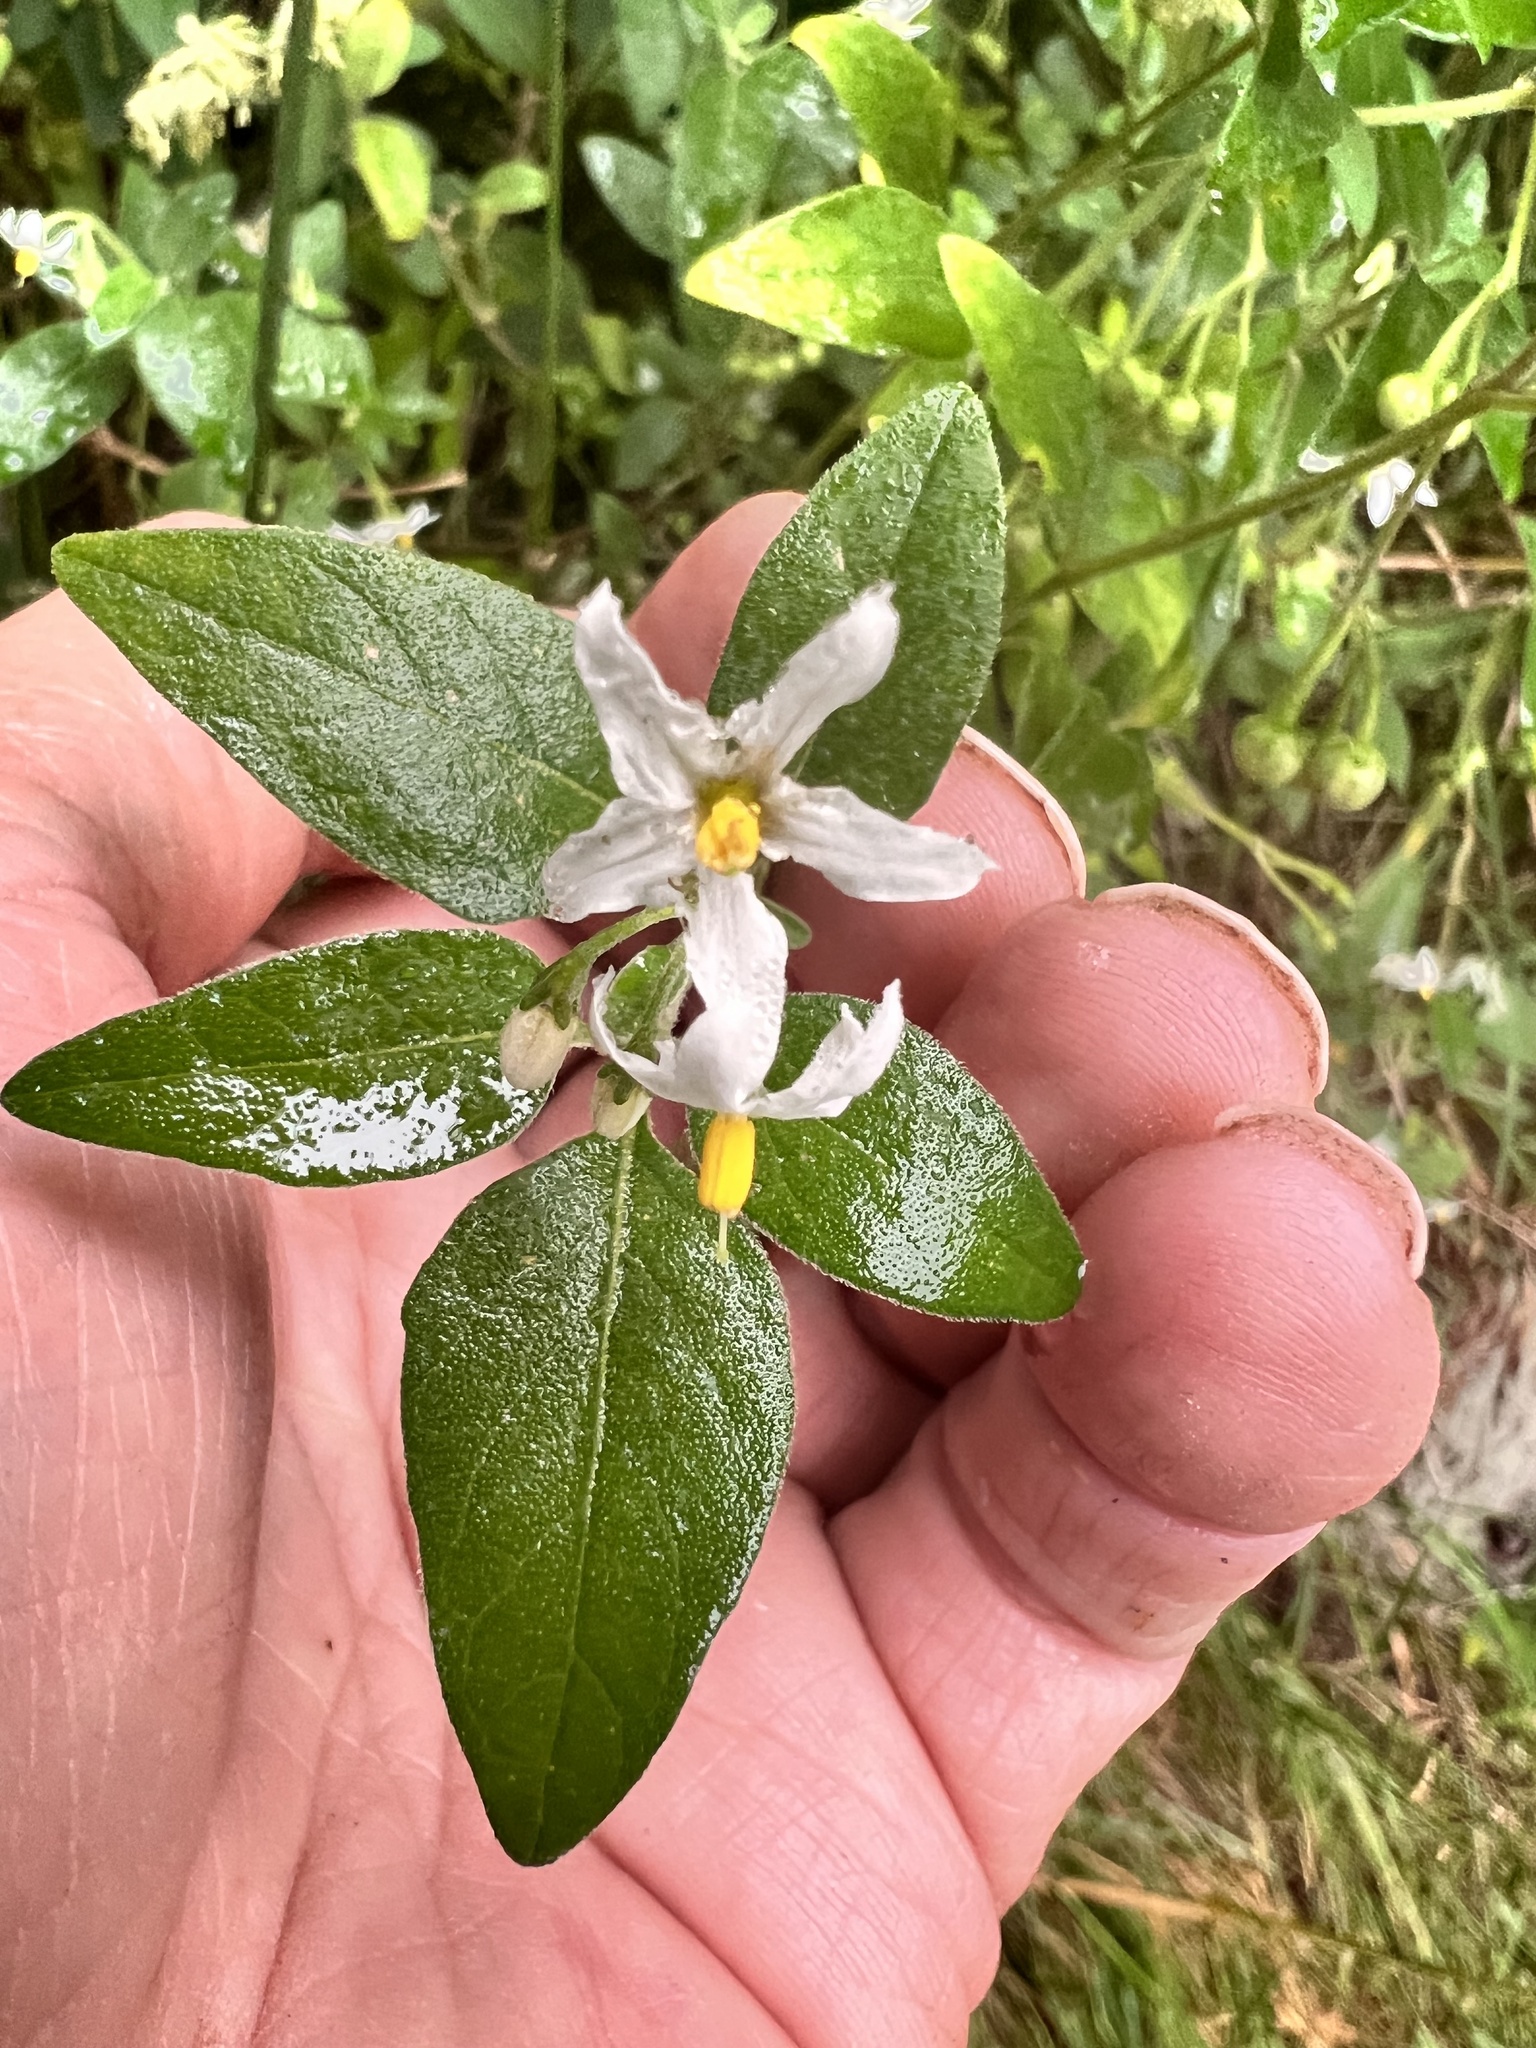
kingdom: Plantae
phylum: Tracheophyta
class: Magnoliopsida
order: Solanales
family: Solanaceae
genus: Solanum
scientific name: Solanum chenopodioides
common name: Tall nightshade
